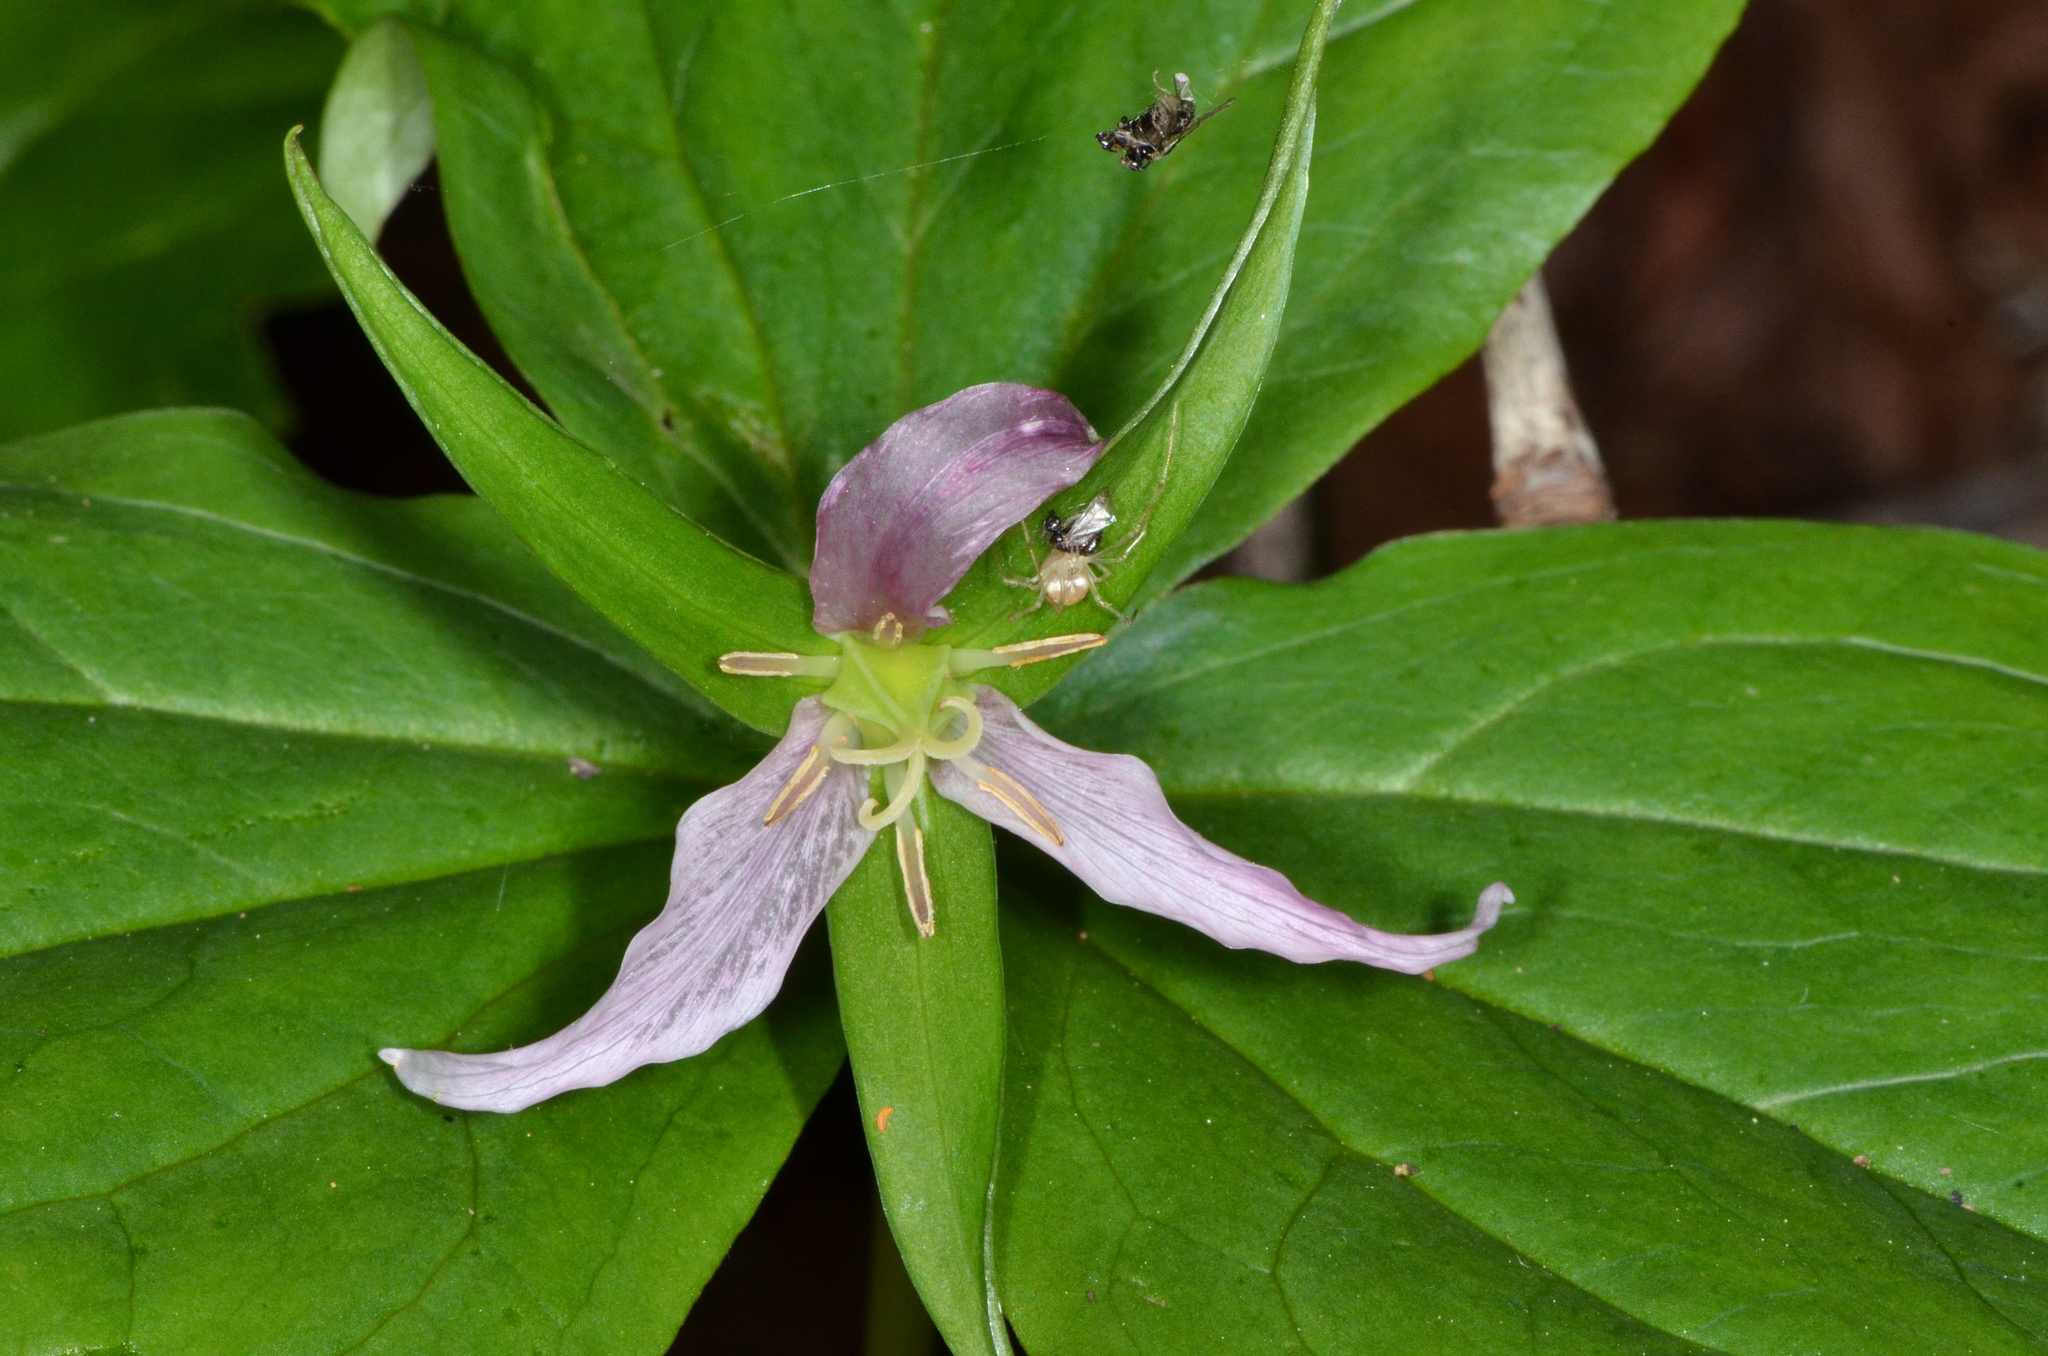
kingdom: Plantae
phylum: Tracheophyta
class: Liliopsida
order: Liliales
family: Melanthiaceae
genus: Trillium
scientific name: Trillium ovatum
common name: Pacific trillium
